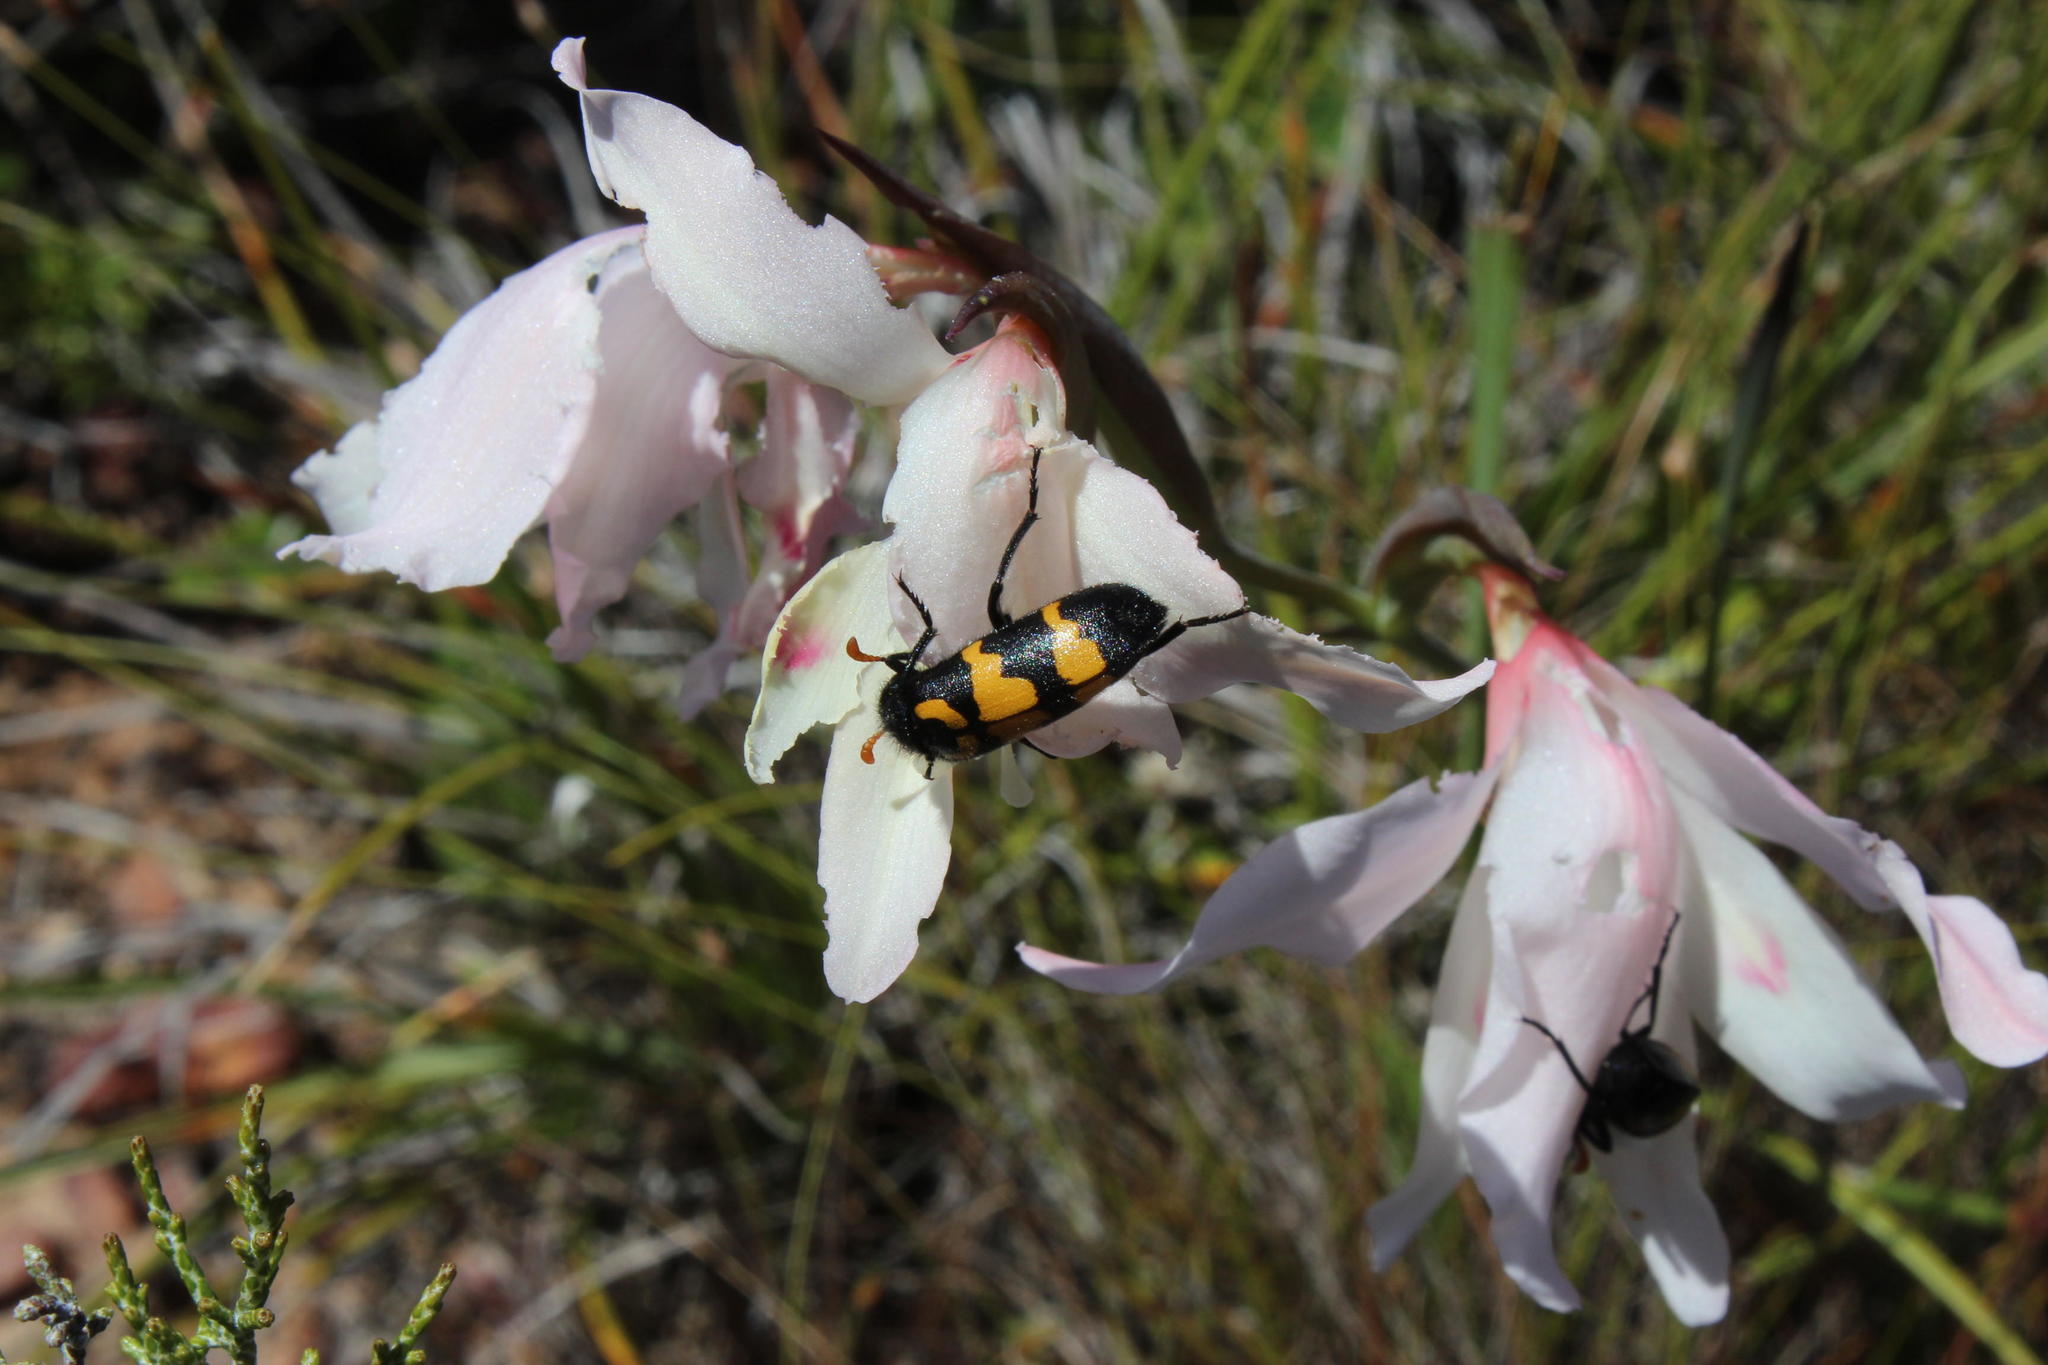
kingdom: Plantae
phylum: Tracheophyta
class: Liliopsida
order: Asparagales
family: Iridaceae
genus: Gladiolus
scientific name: Gladiolus carneus
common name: Painted-lady
